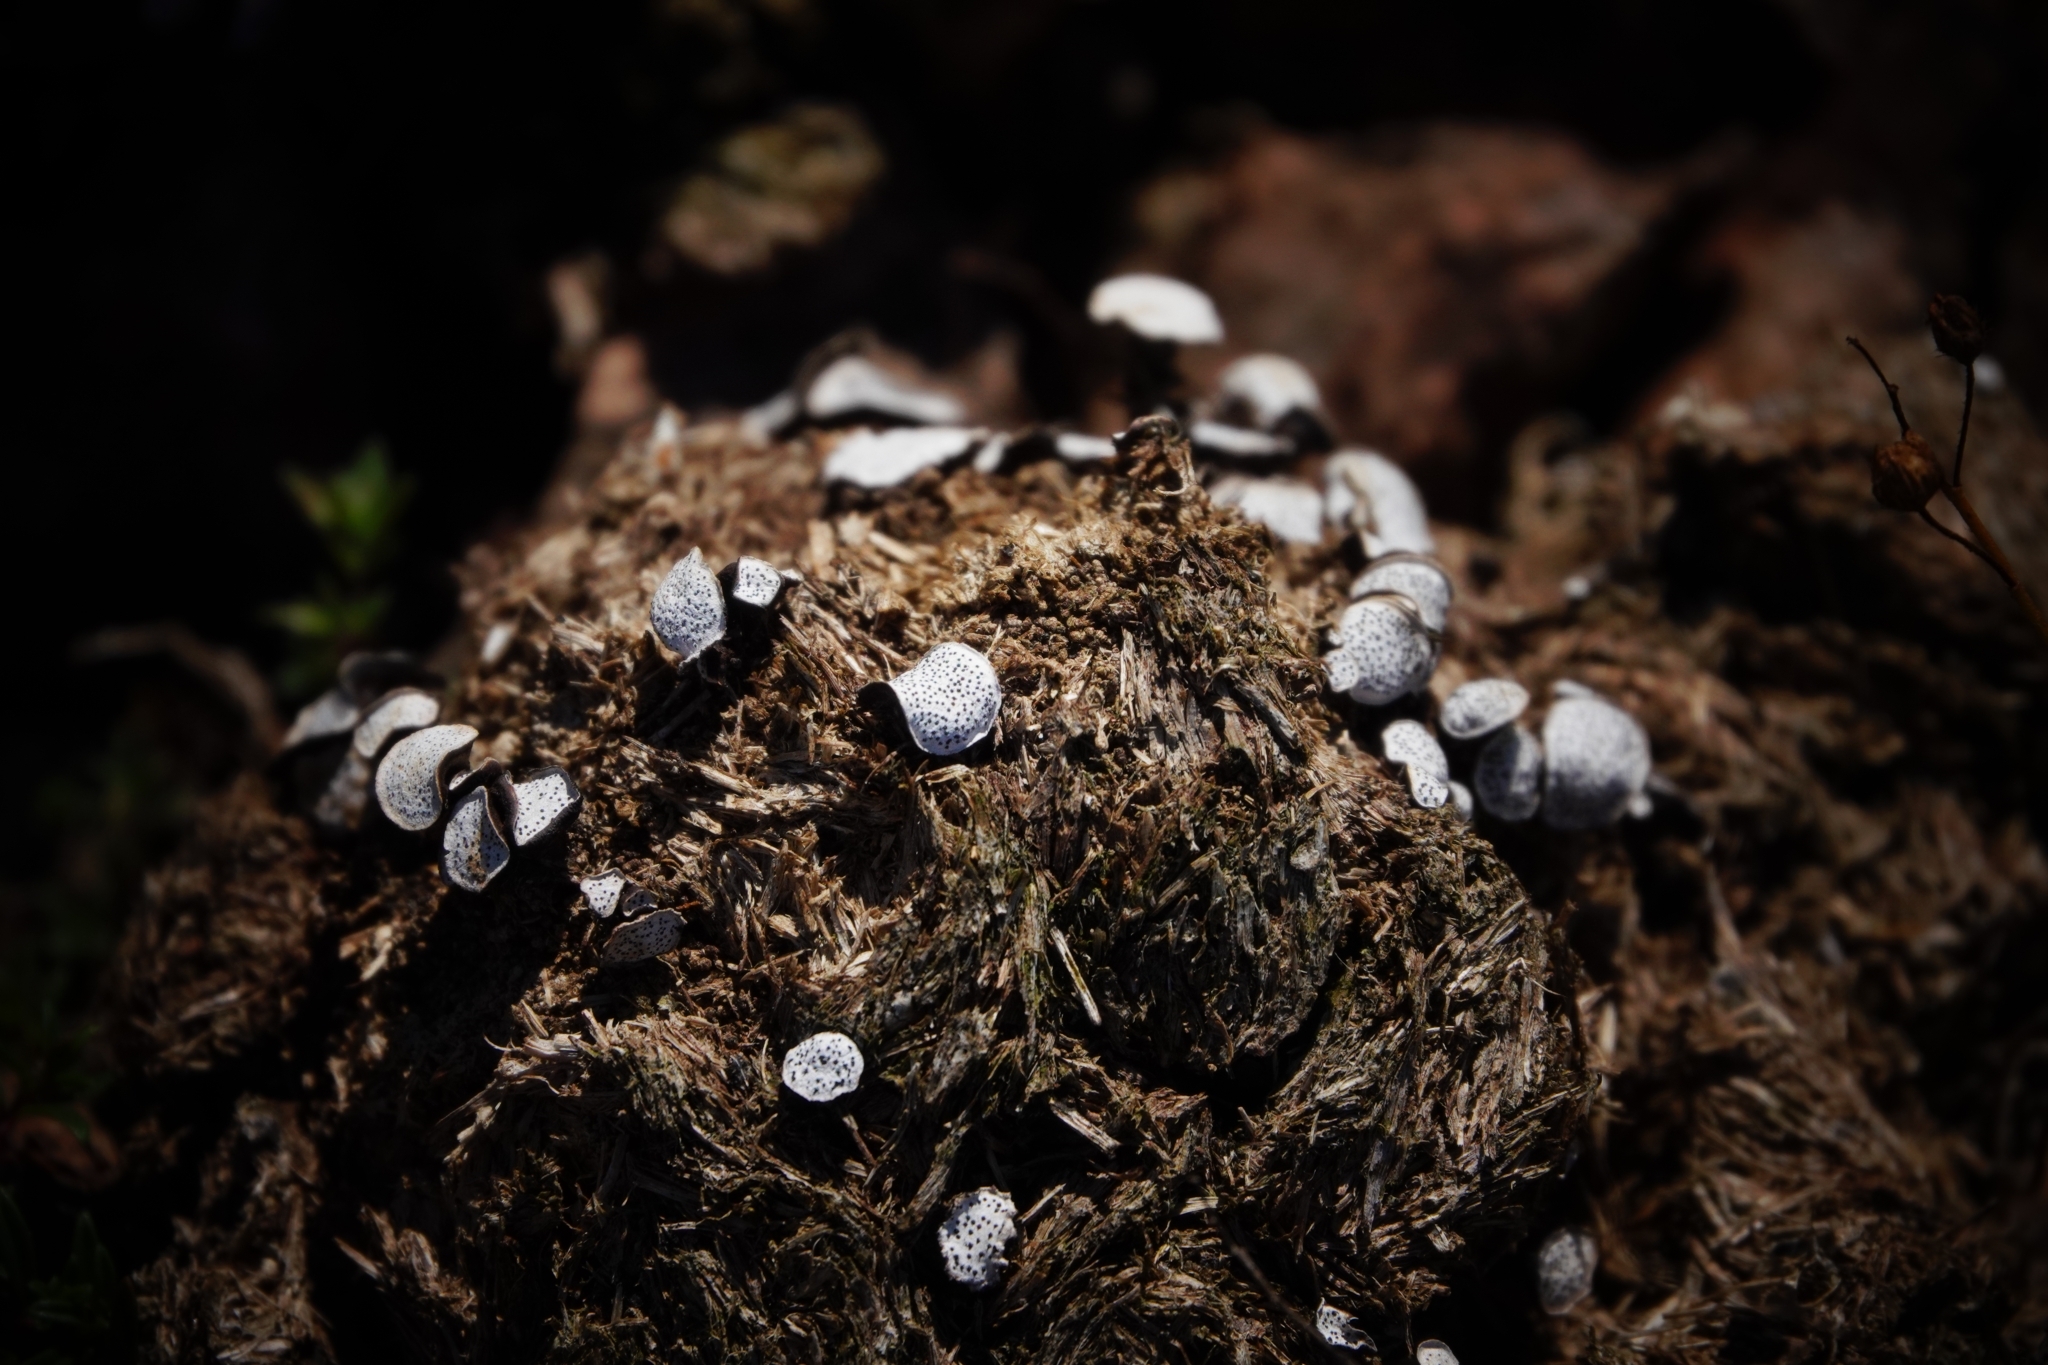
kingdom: Fungi
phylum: Ascomycota
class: Sordariomycetes
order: Xylariales
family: Xylariaceae
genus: Poronia
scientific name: Poronia punctata
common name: Nail fungus
